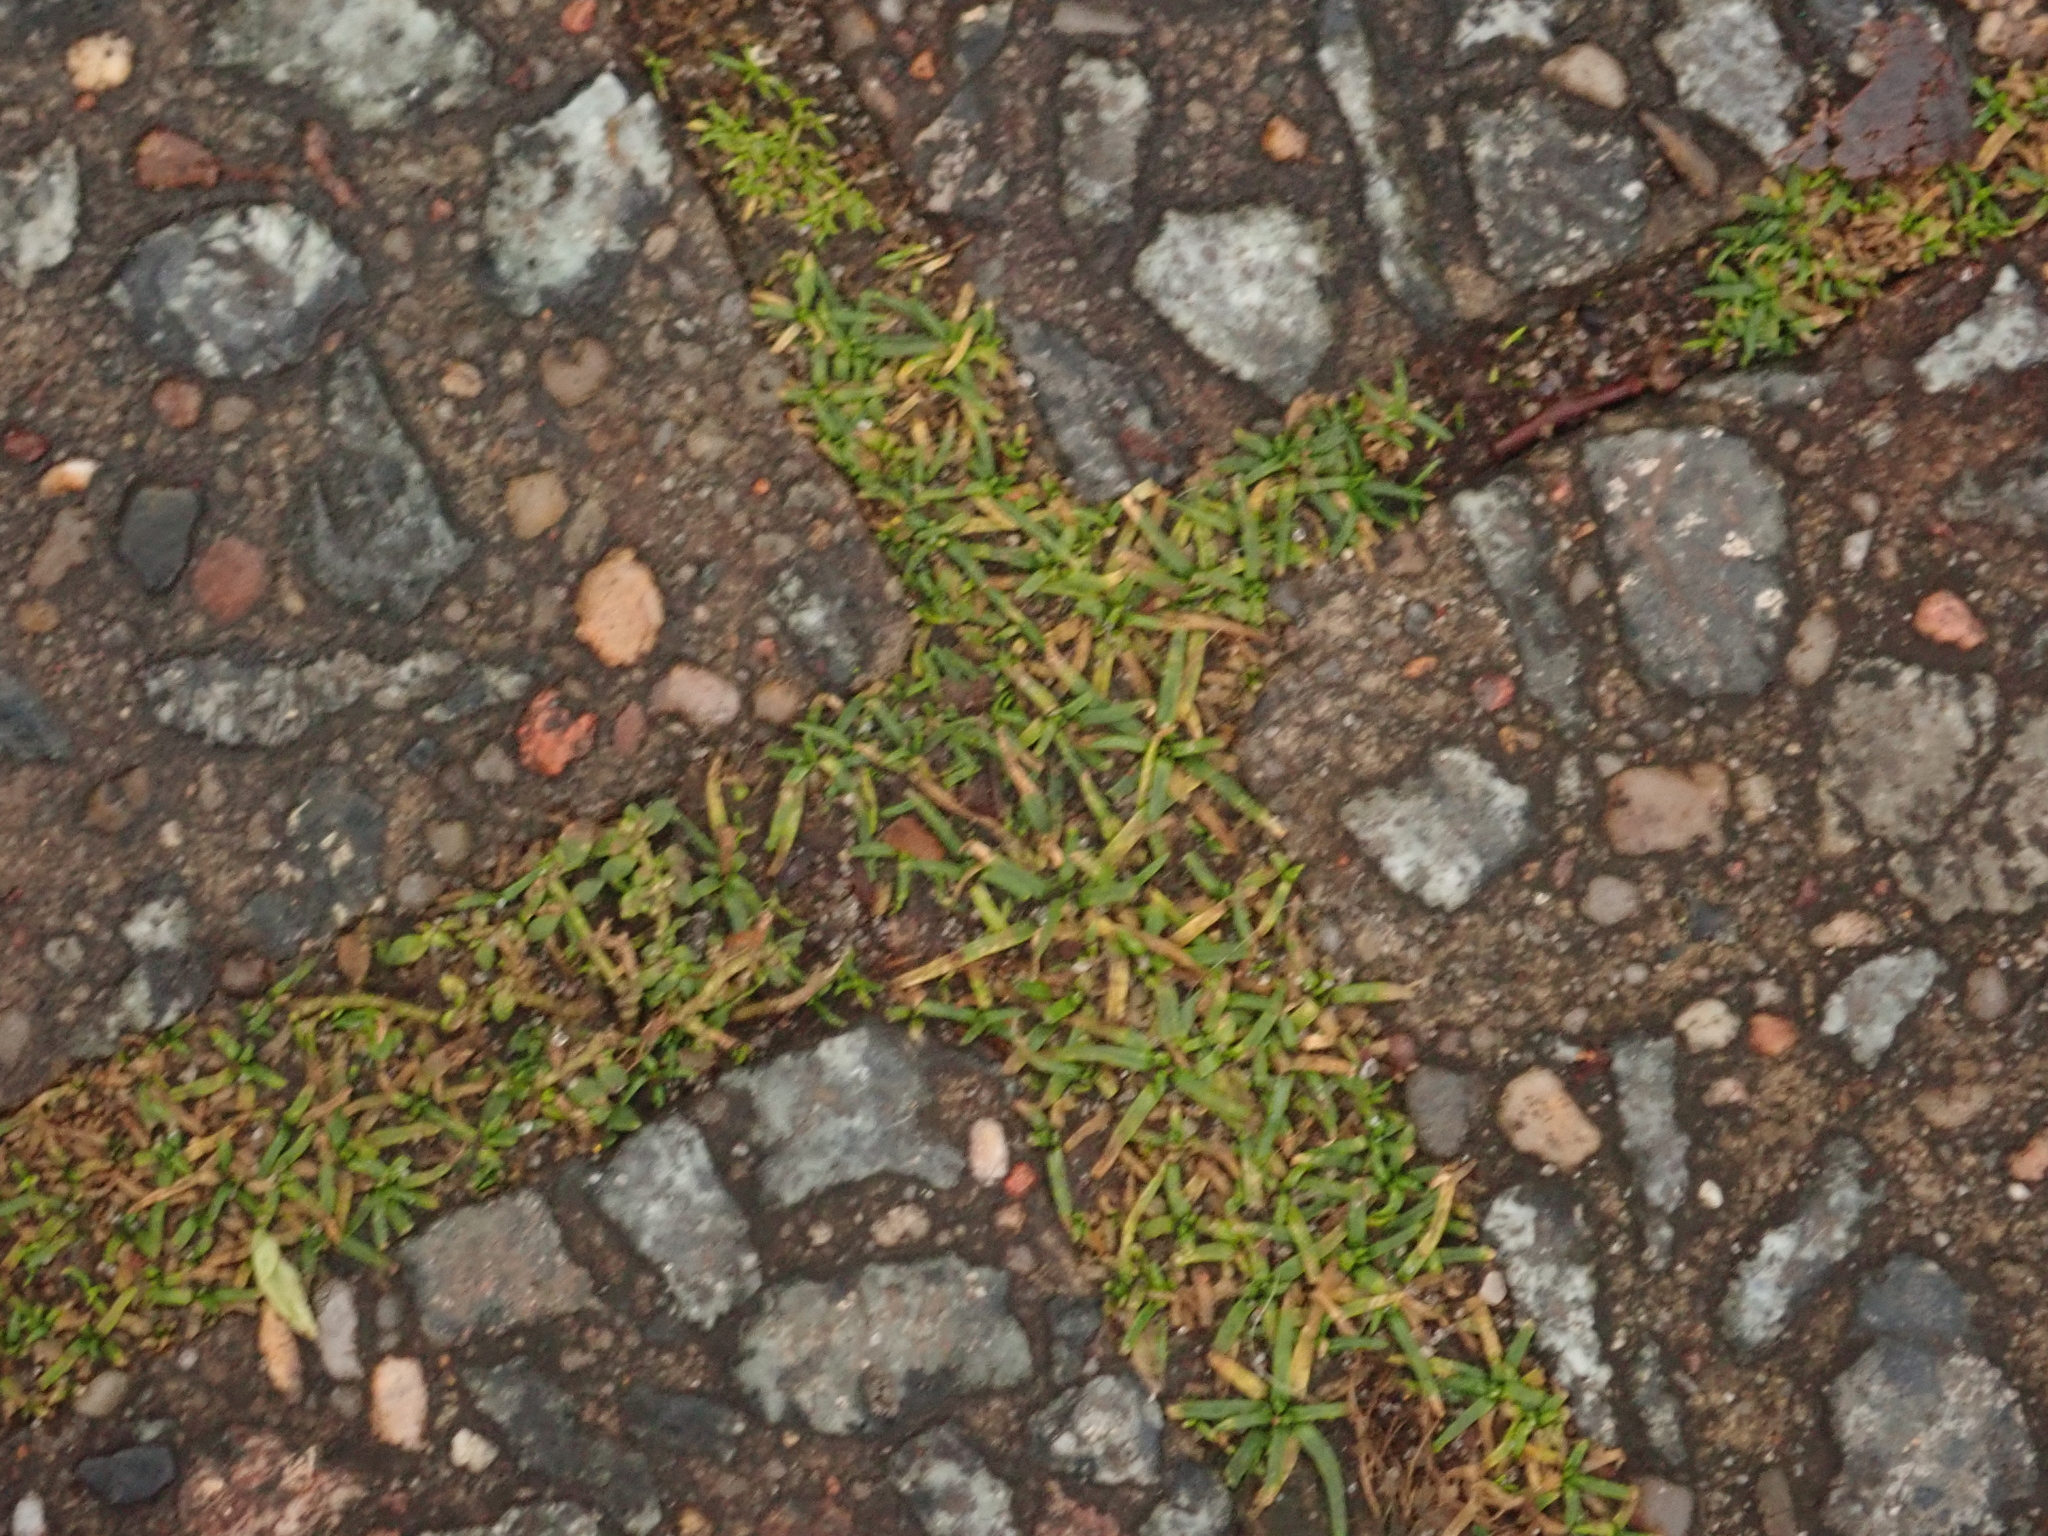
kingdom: Plantae
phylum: Tracheophyta
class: Magnoliopsida
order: Caryophyllales
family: Caryophyllaceae
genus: Sagina
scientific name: Sagina procumbens
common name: Procumbent pearlwort
